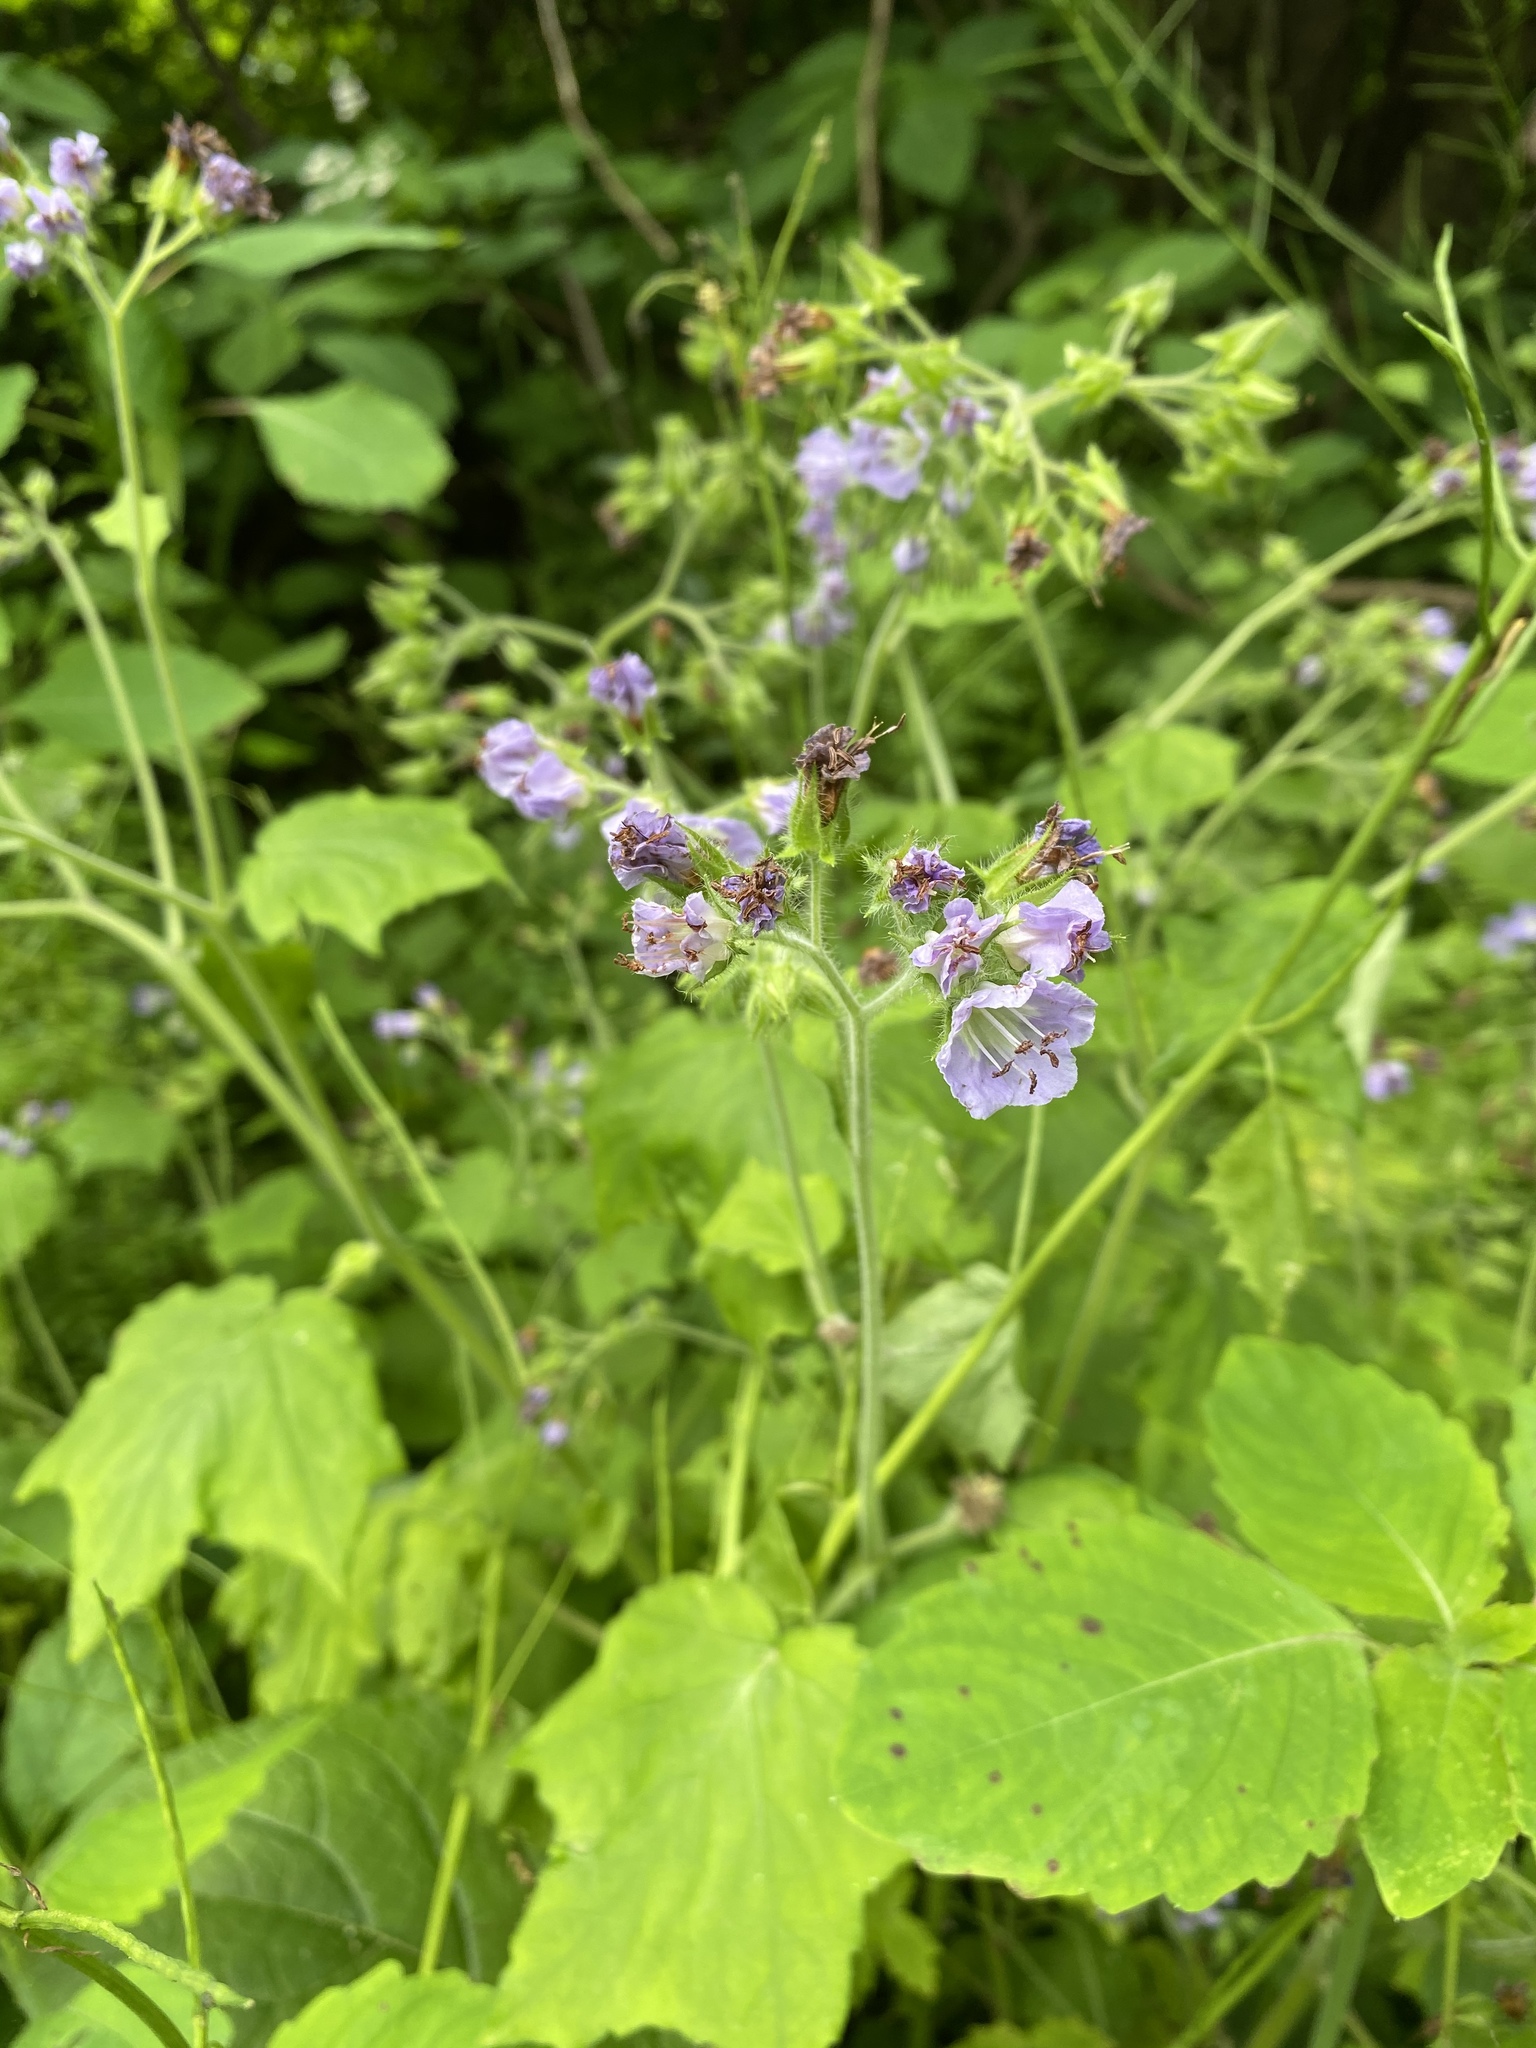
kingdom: Plantae
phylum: Tracheophyta
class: Magnoliopsida
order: Boraginales
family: Hydrophyllaceae
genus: Hydrophyllum
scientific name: Hydrophyllum appendiculatum
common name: Appendaged waterleaf
